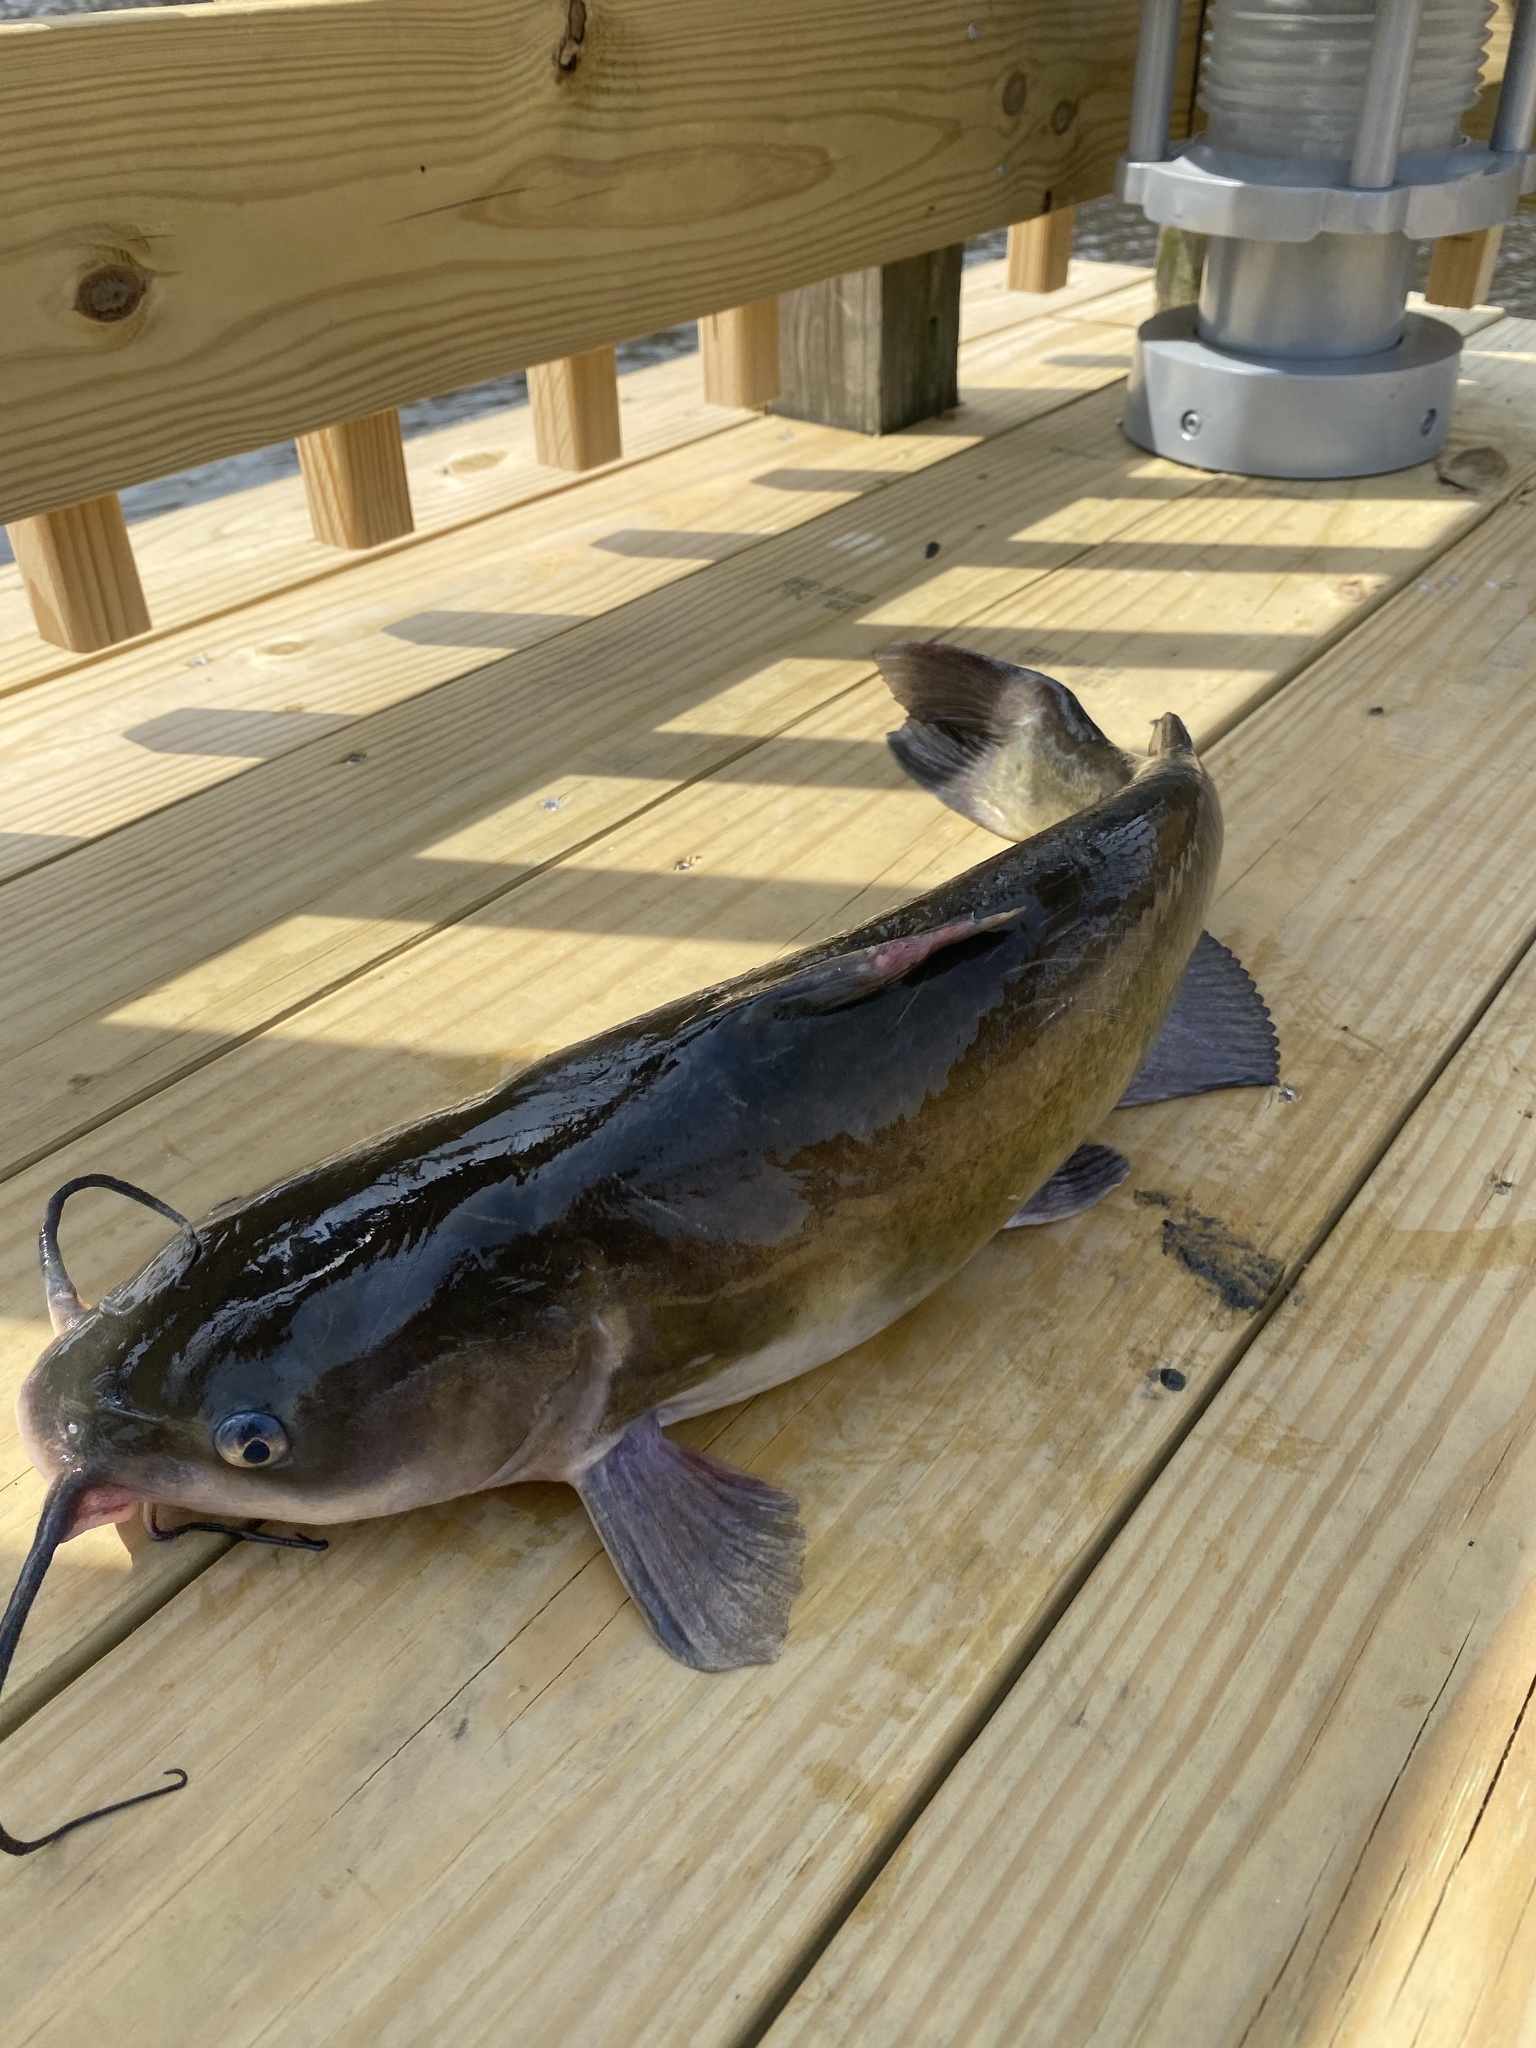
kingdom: Animalia
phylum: Chordata
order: Siluriformes
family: Ictaluridae
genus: Ictalurus
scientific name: Ictalurus punctatus
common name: Channel catfish
